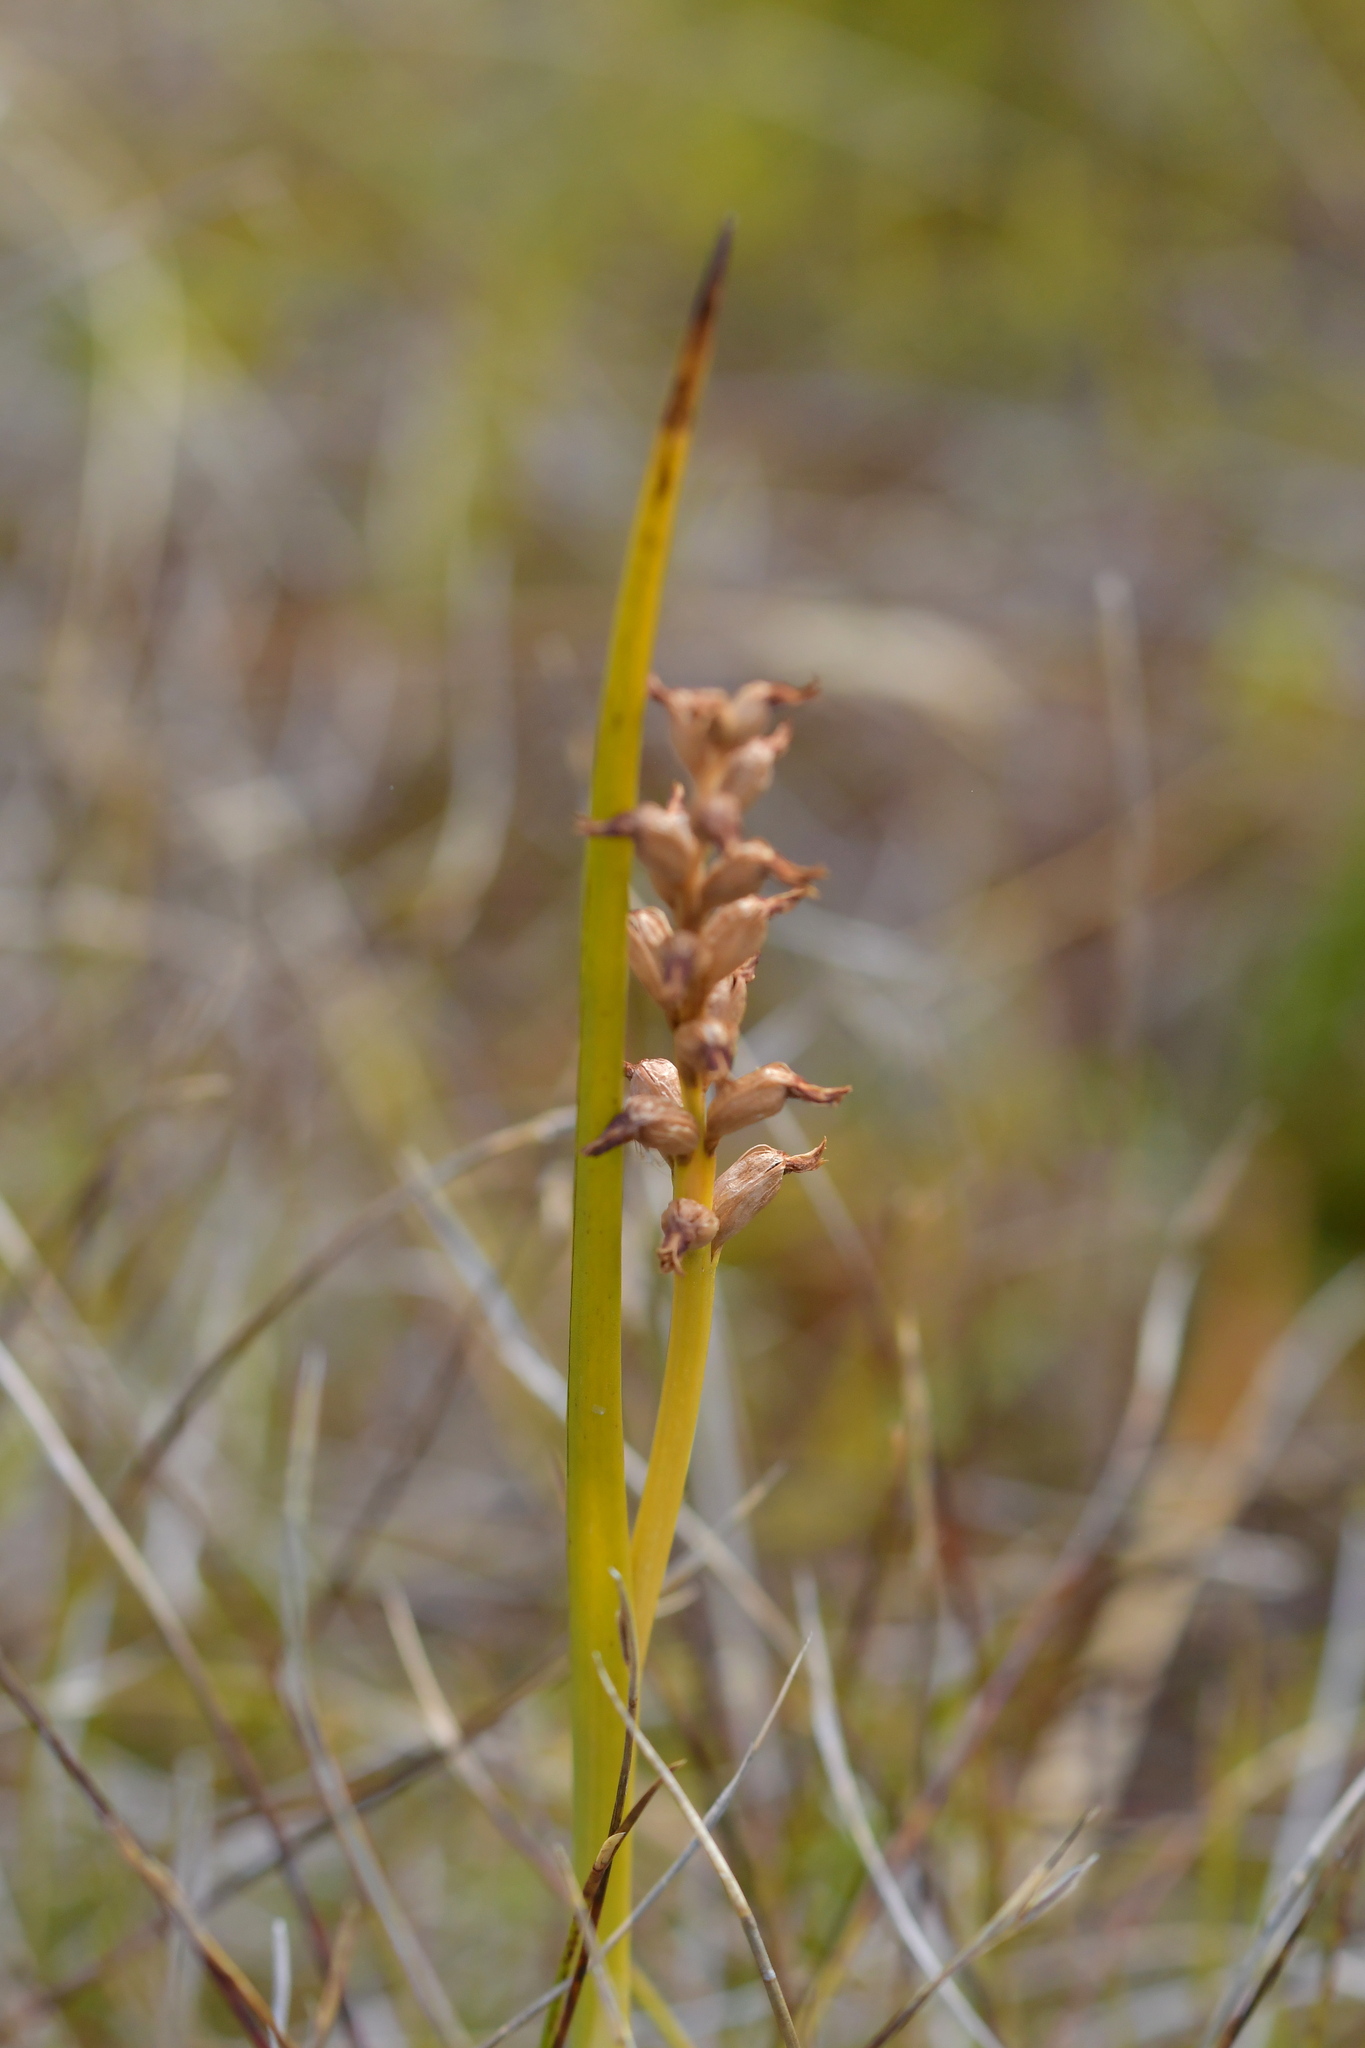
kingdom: Plantae
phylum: Tracheophyta
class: Liliopsida
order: Asparagales
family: Orchidaceae
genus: Prasophyllum
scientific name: Prasophyllum colensoi
